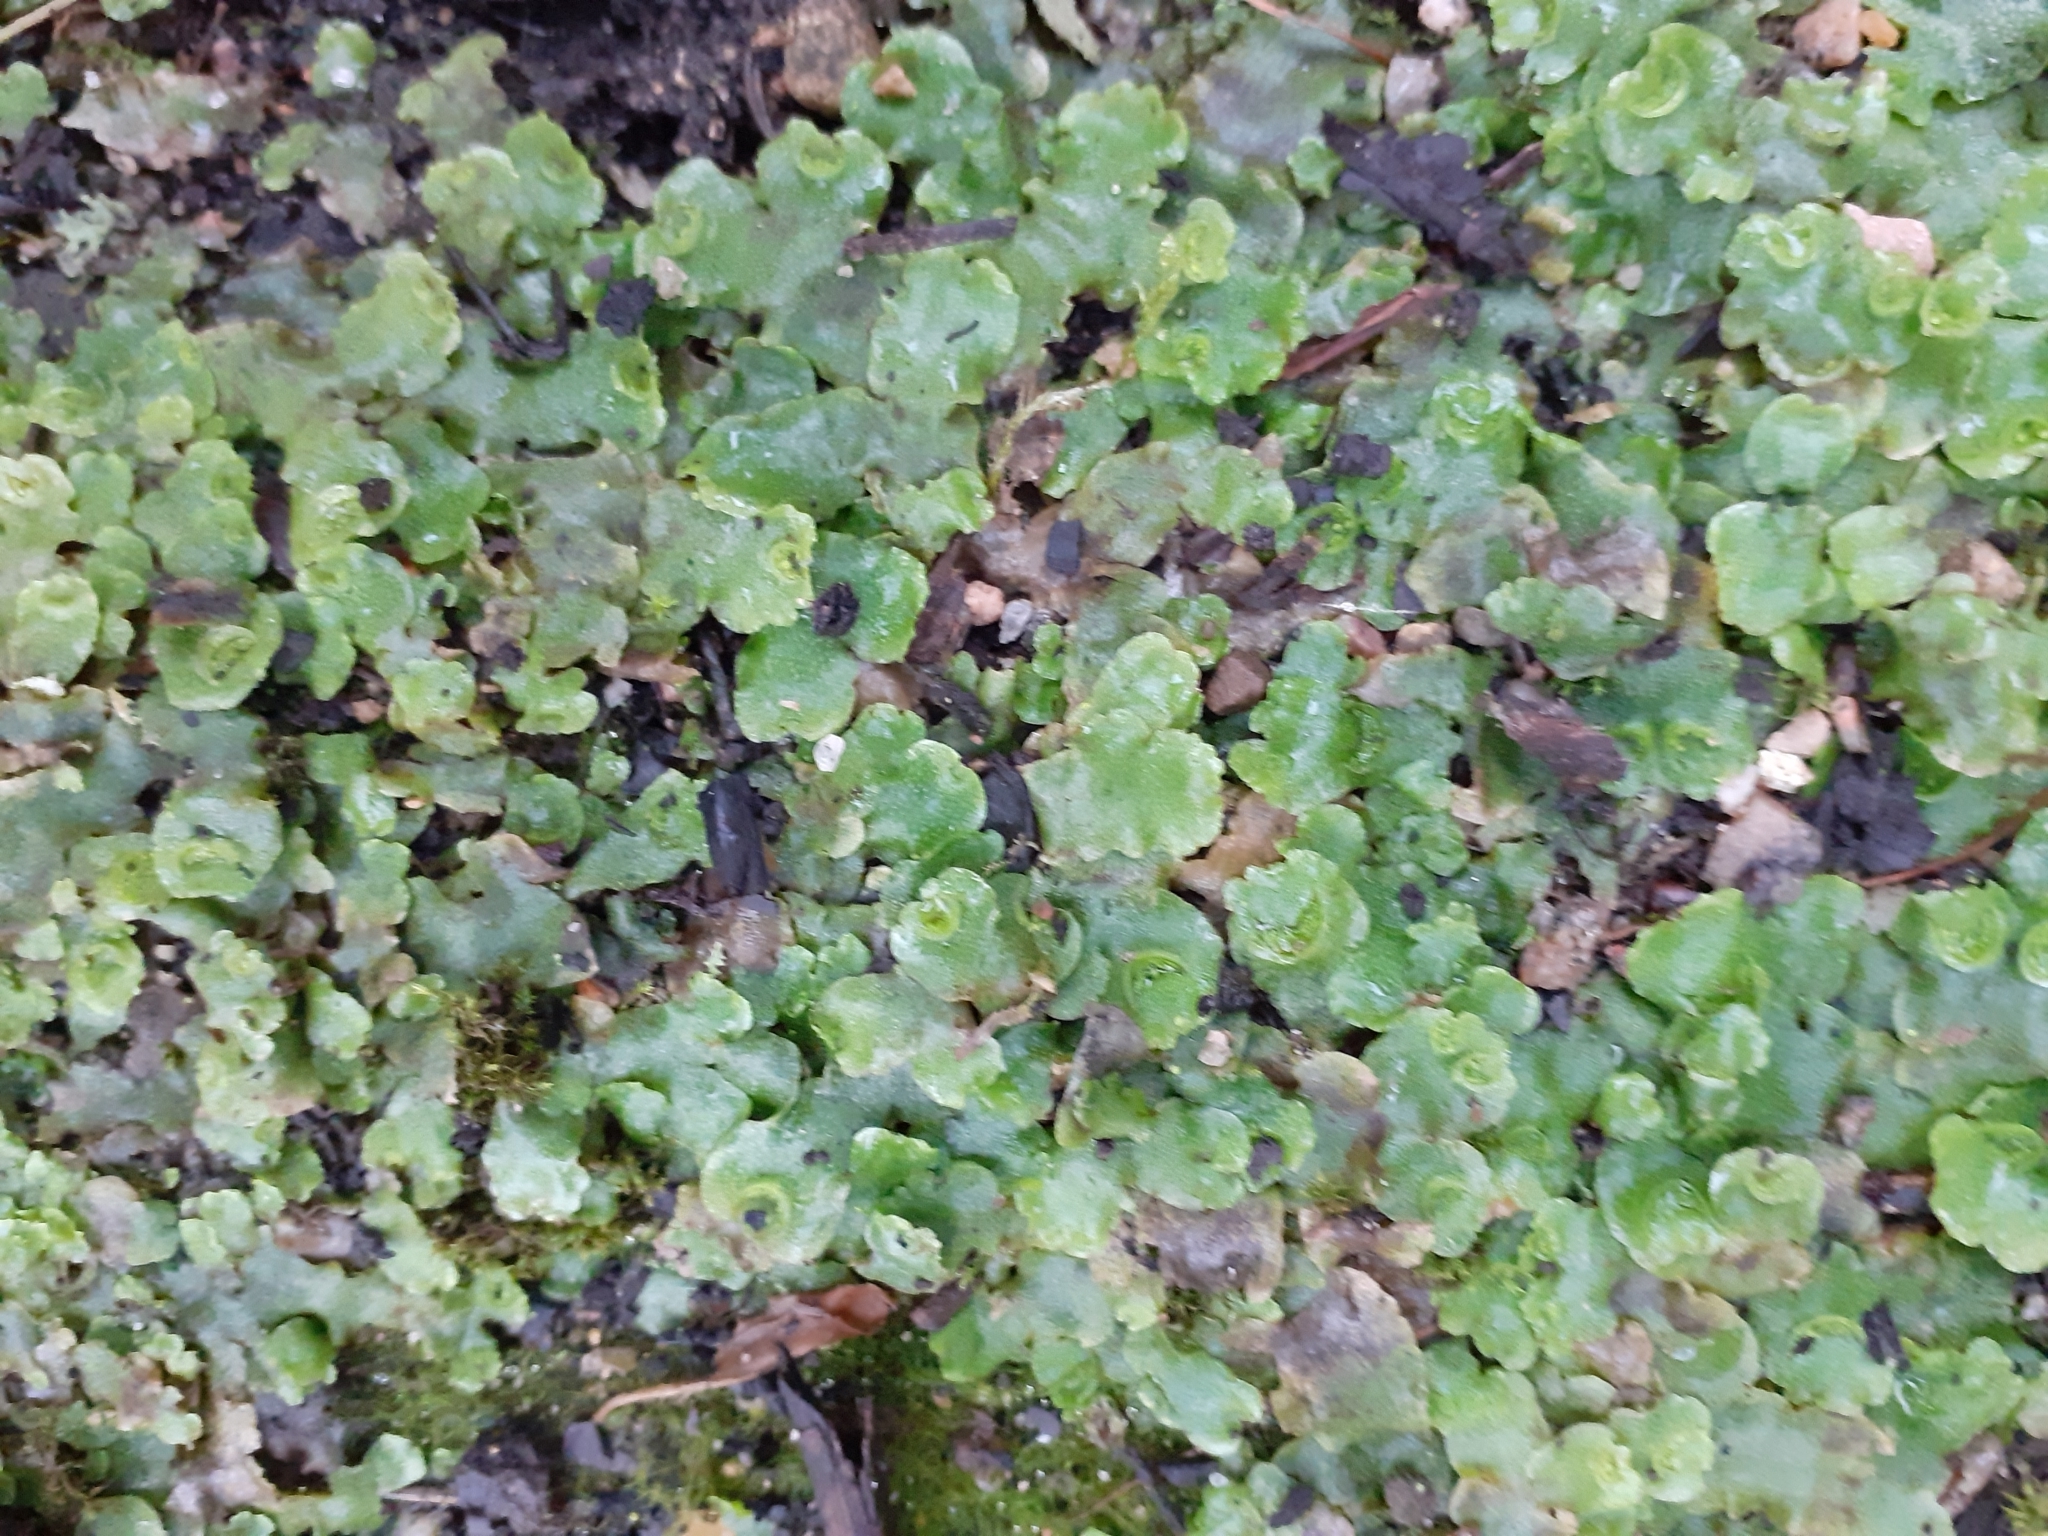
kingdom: Plantae
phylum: Marchantiophyta
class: Marchantiopsida
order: Lunulariales
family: Lunulariaceae
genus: Lunularia
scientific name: Lunularia cruciata
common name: Crescent-cup liverwort
